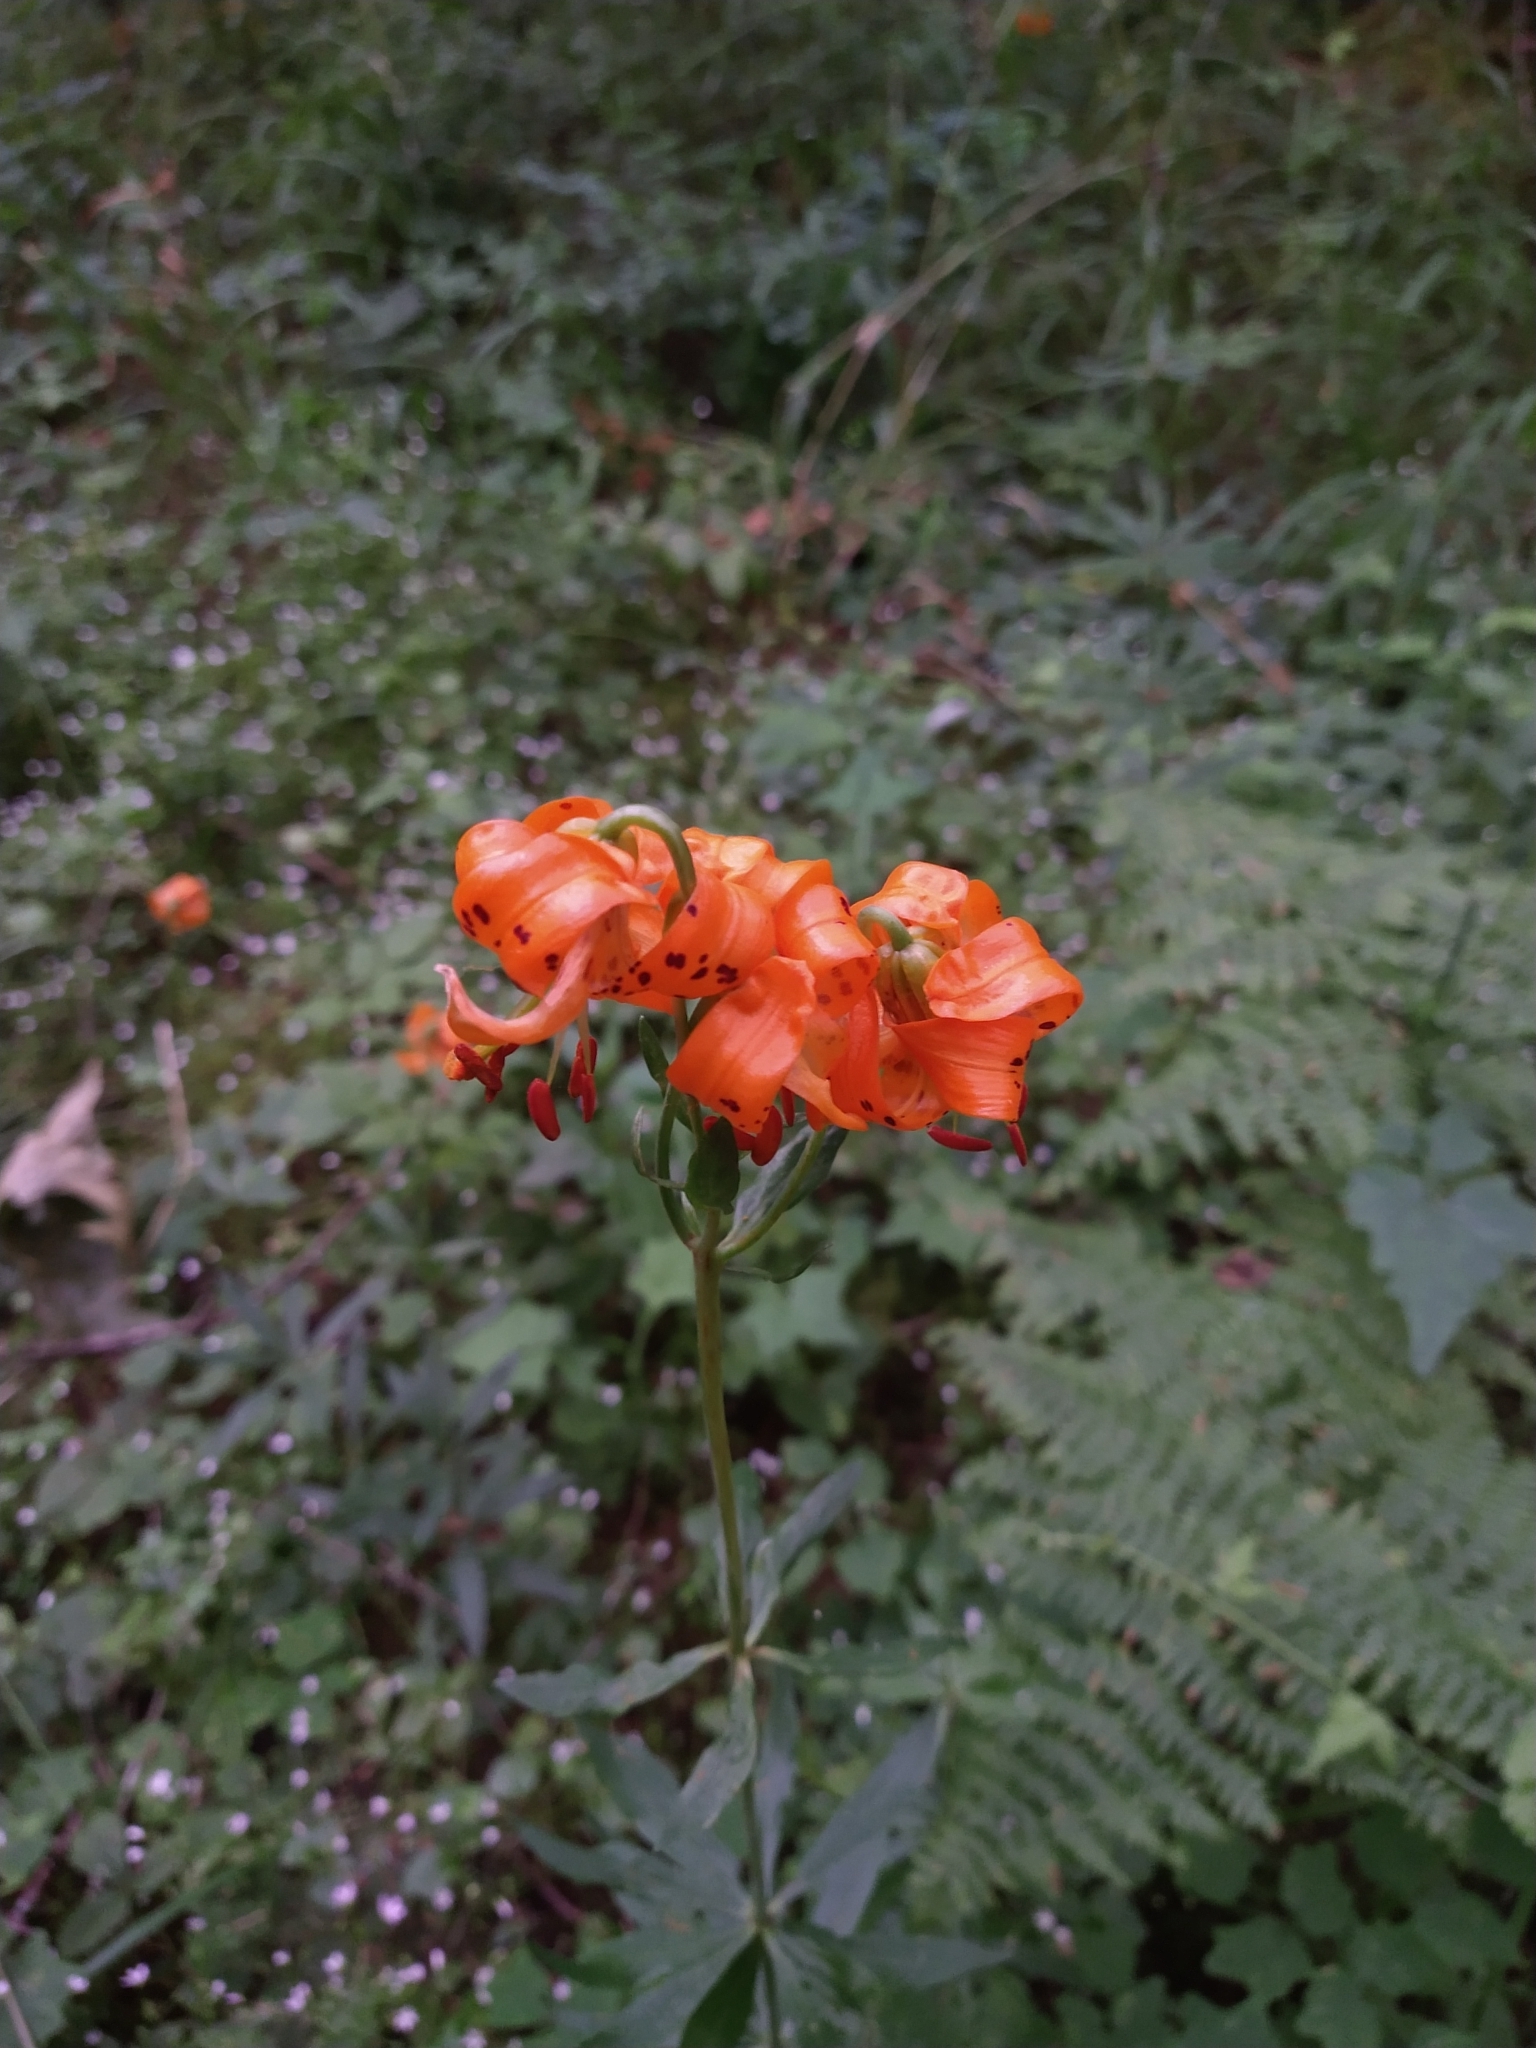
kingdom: Plantae
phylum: Tracheophyta
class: Liliopsida
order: Liliales
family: Liliaceae
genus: Lilium
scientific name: Lilium columbianum
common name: Columbia lily
